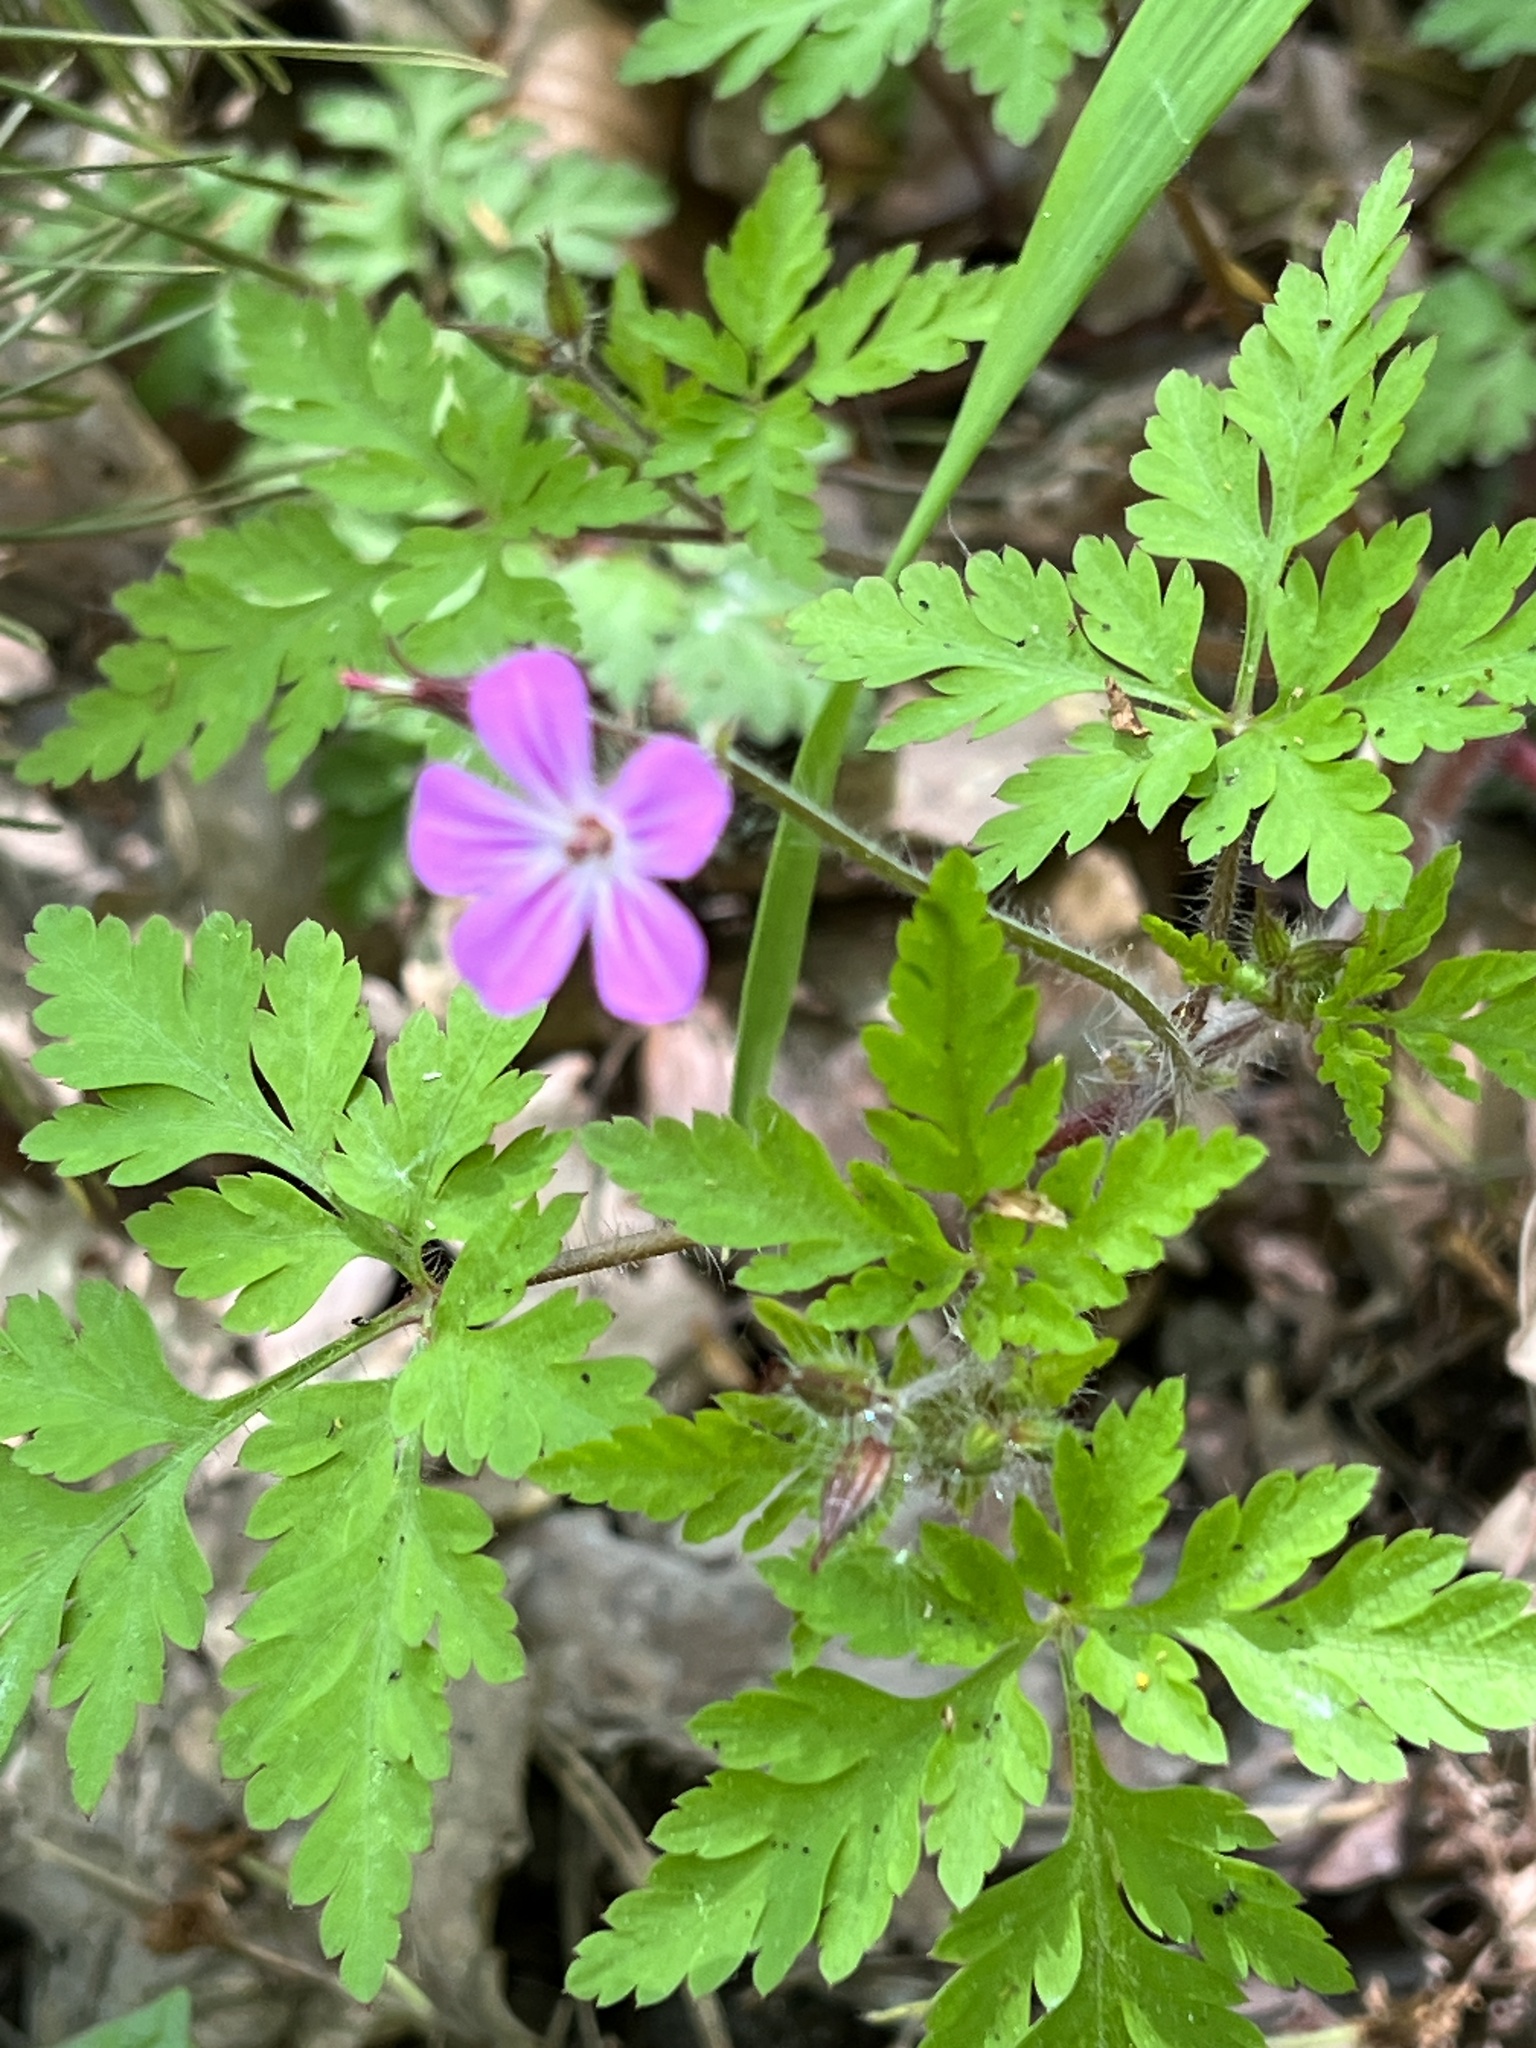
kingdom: Plantae
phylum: Tracheophyta
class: Magnoliopsida
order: Geraniales
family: Geraniaceae
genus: Geranium
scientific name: Geranium robertianum
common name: Herb-robert
